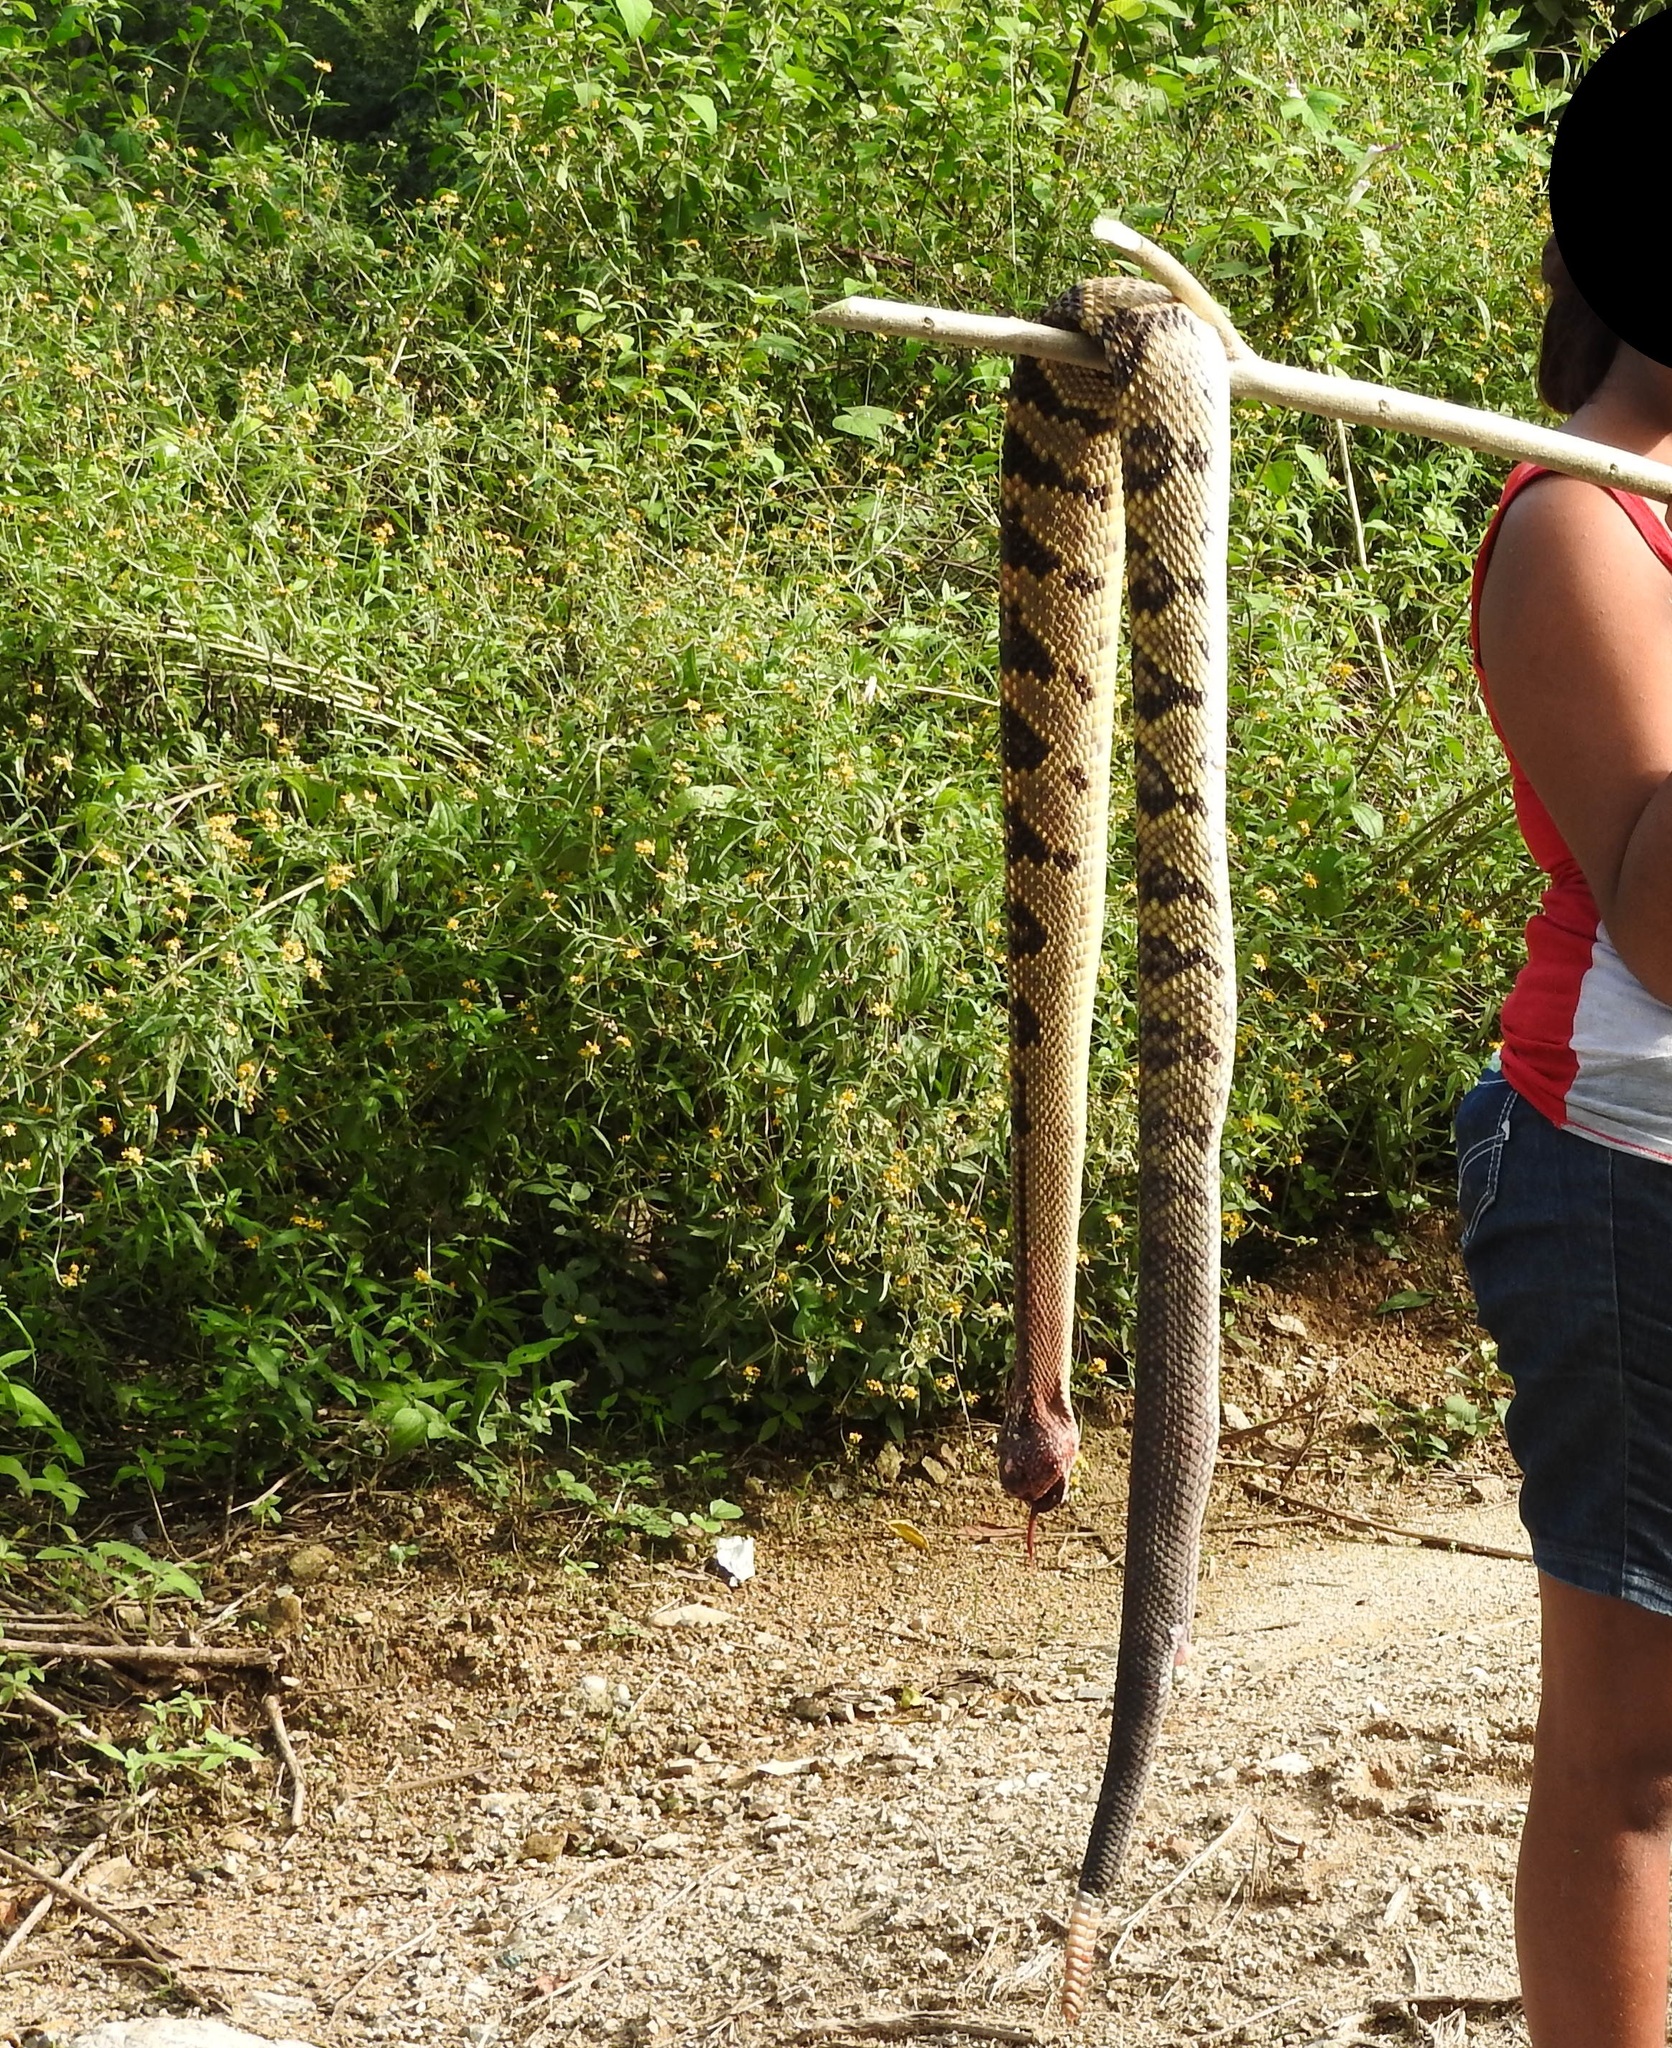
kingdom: Animalia
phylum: Chordata
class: Squamata
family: Viperidae
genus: Crotalus
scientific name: Crotalus culminatus
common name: Northwestern neotropical rattlesnake
